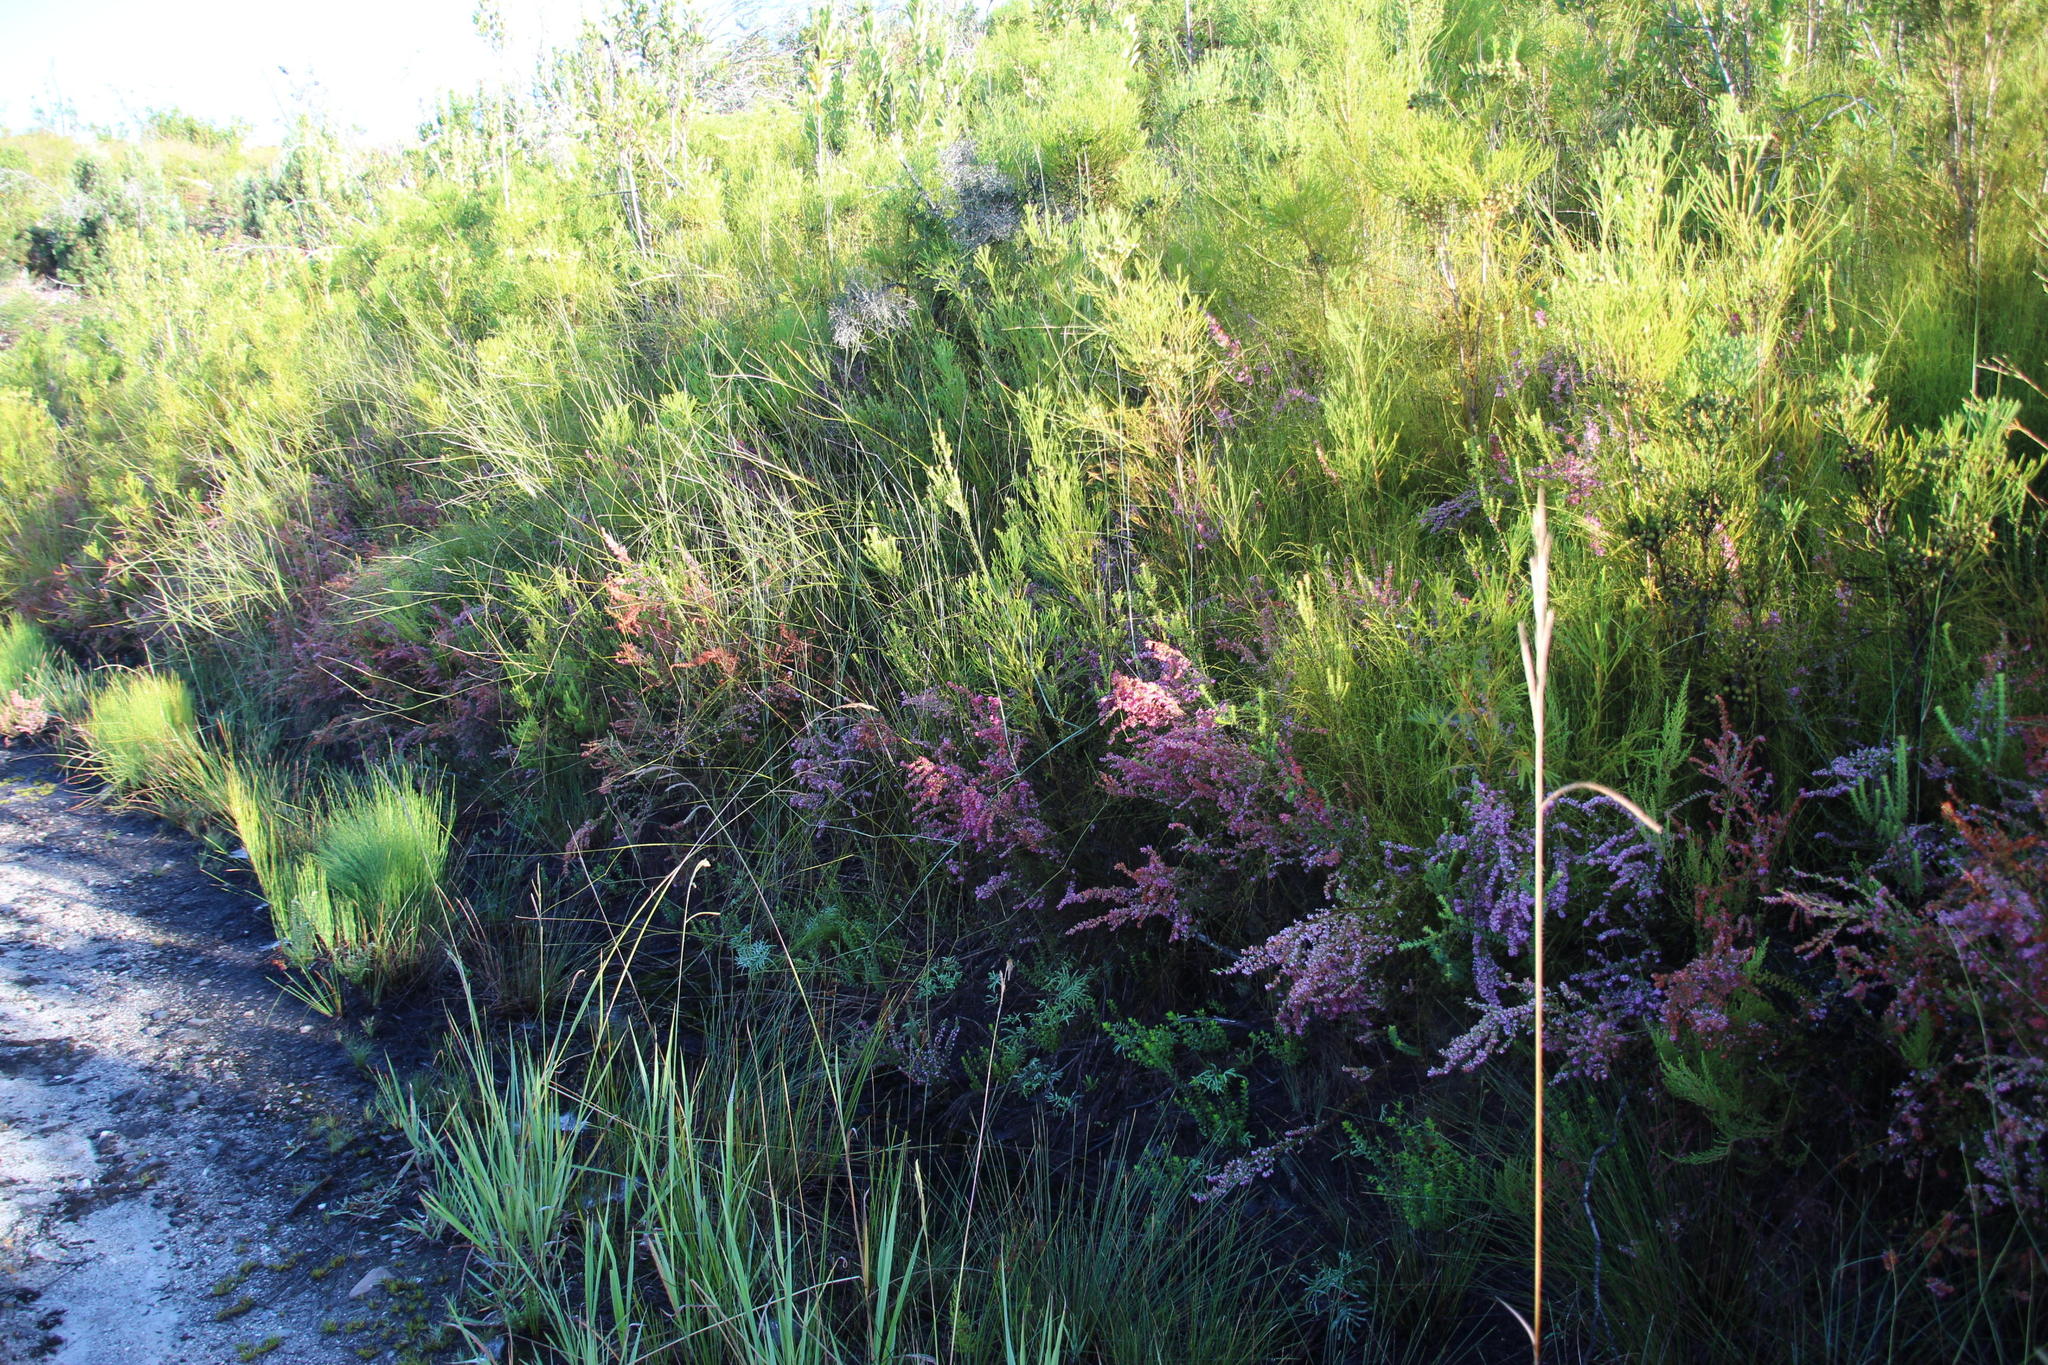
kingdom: Plantae
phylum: Tracheophyta
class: Magnoliopsida
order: Ericales
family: Ericaceae
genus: Erica
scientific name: Erica longimontana
